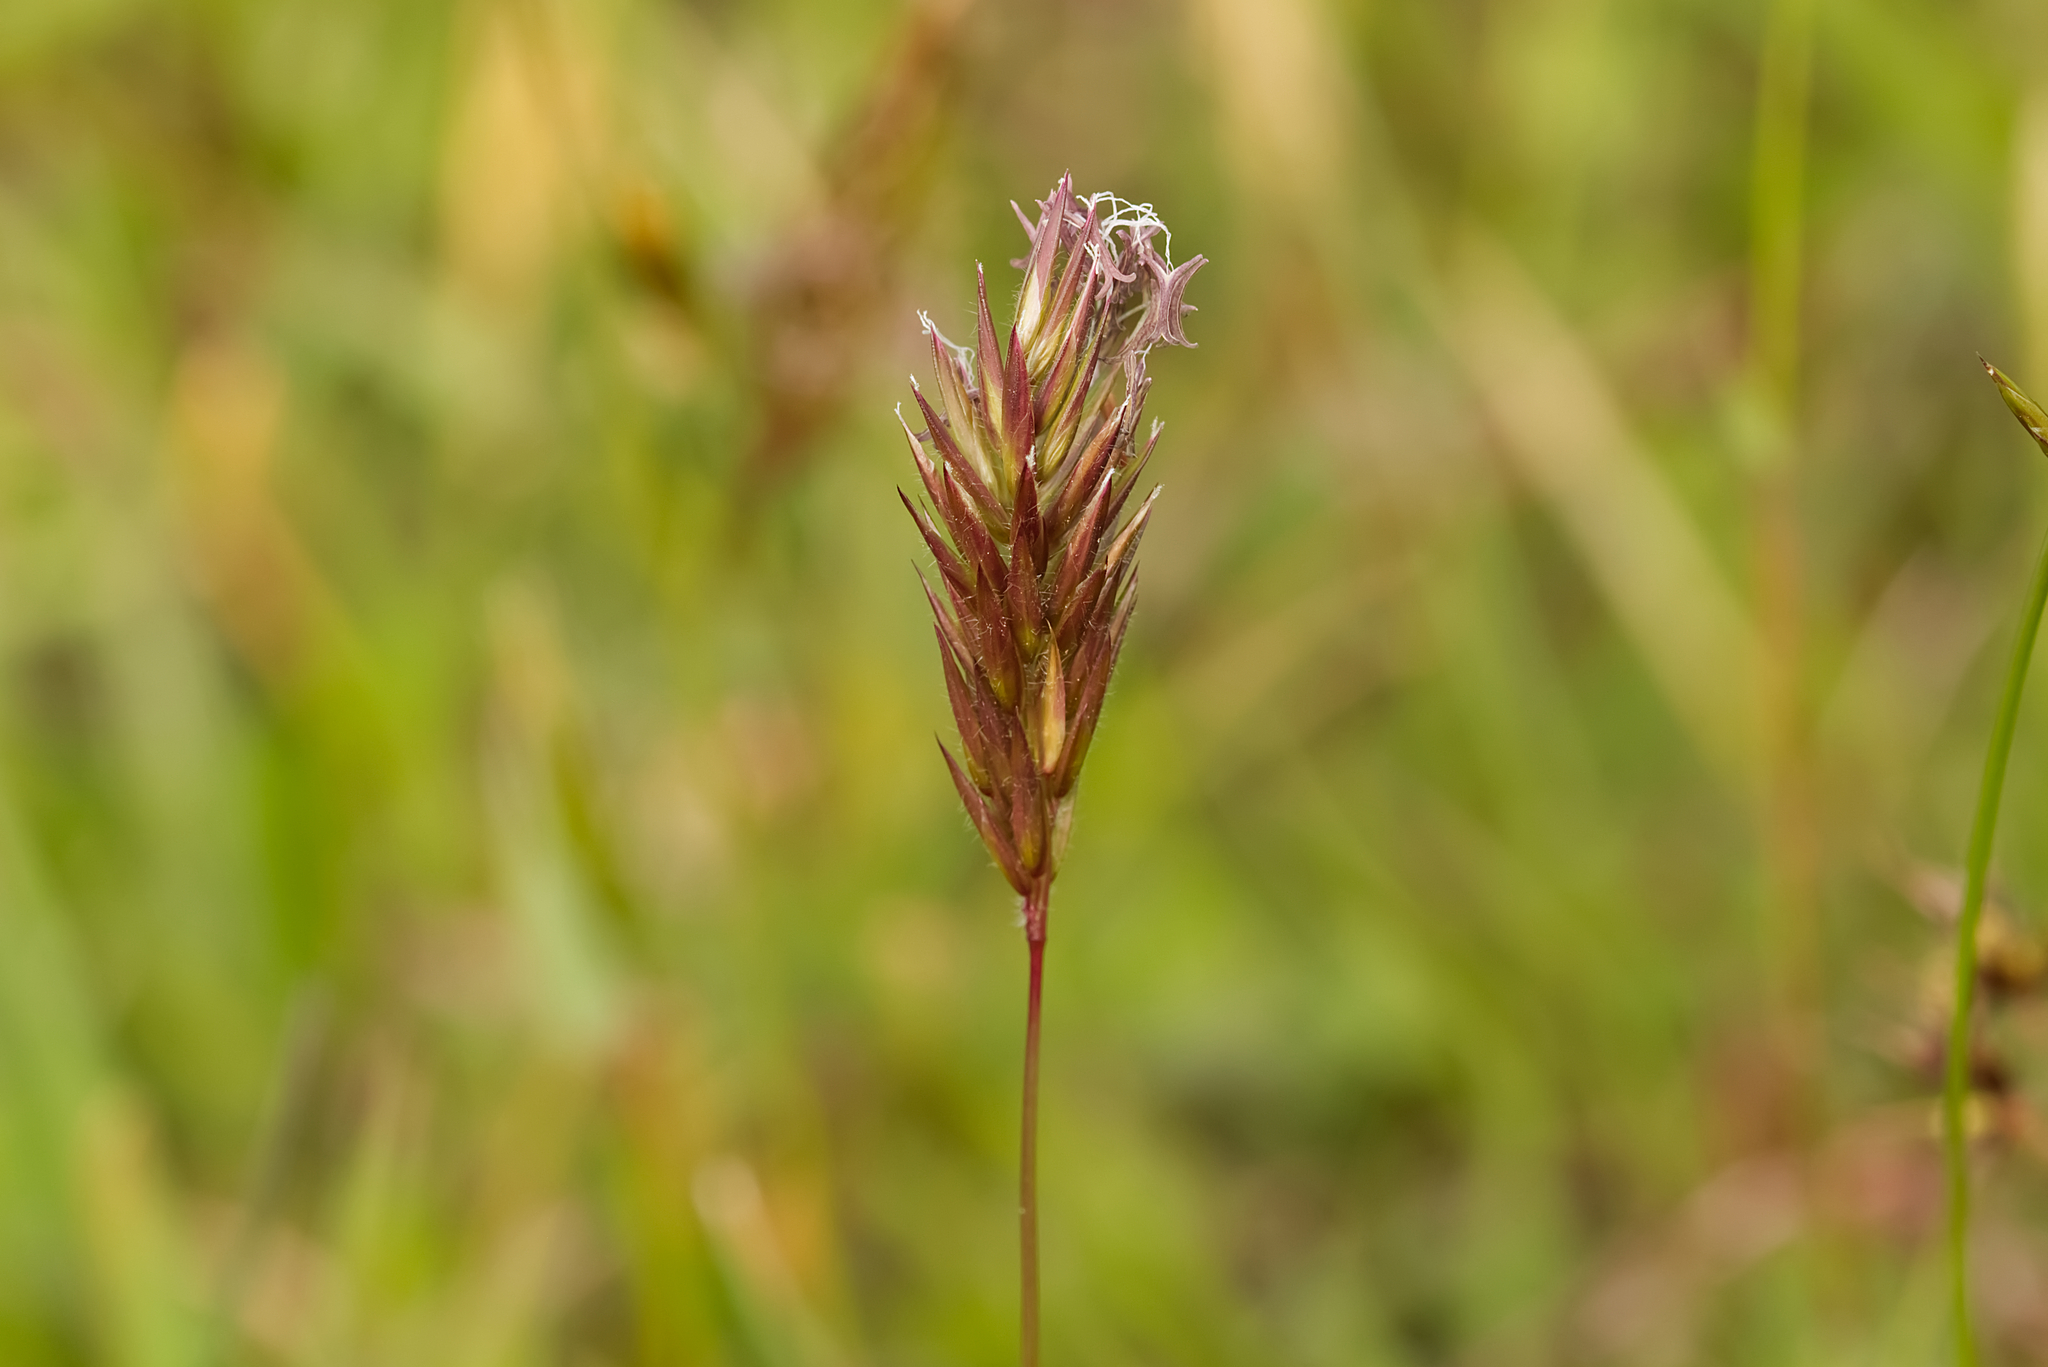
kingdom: Plantae
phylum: Tracheophyta
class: Liliopsida
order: Poales
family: Poaceae
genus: Anthoxanthum
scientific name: Anthoxanthum odoratum
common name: Sweet vernalgrass
